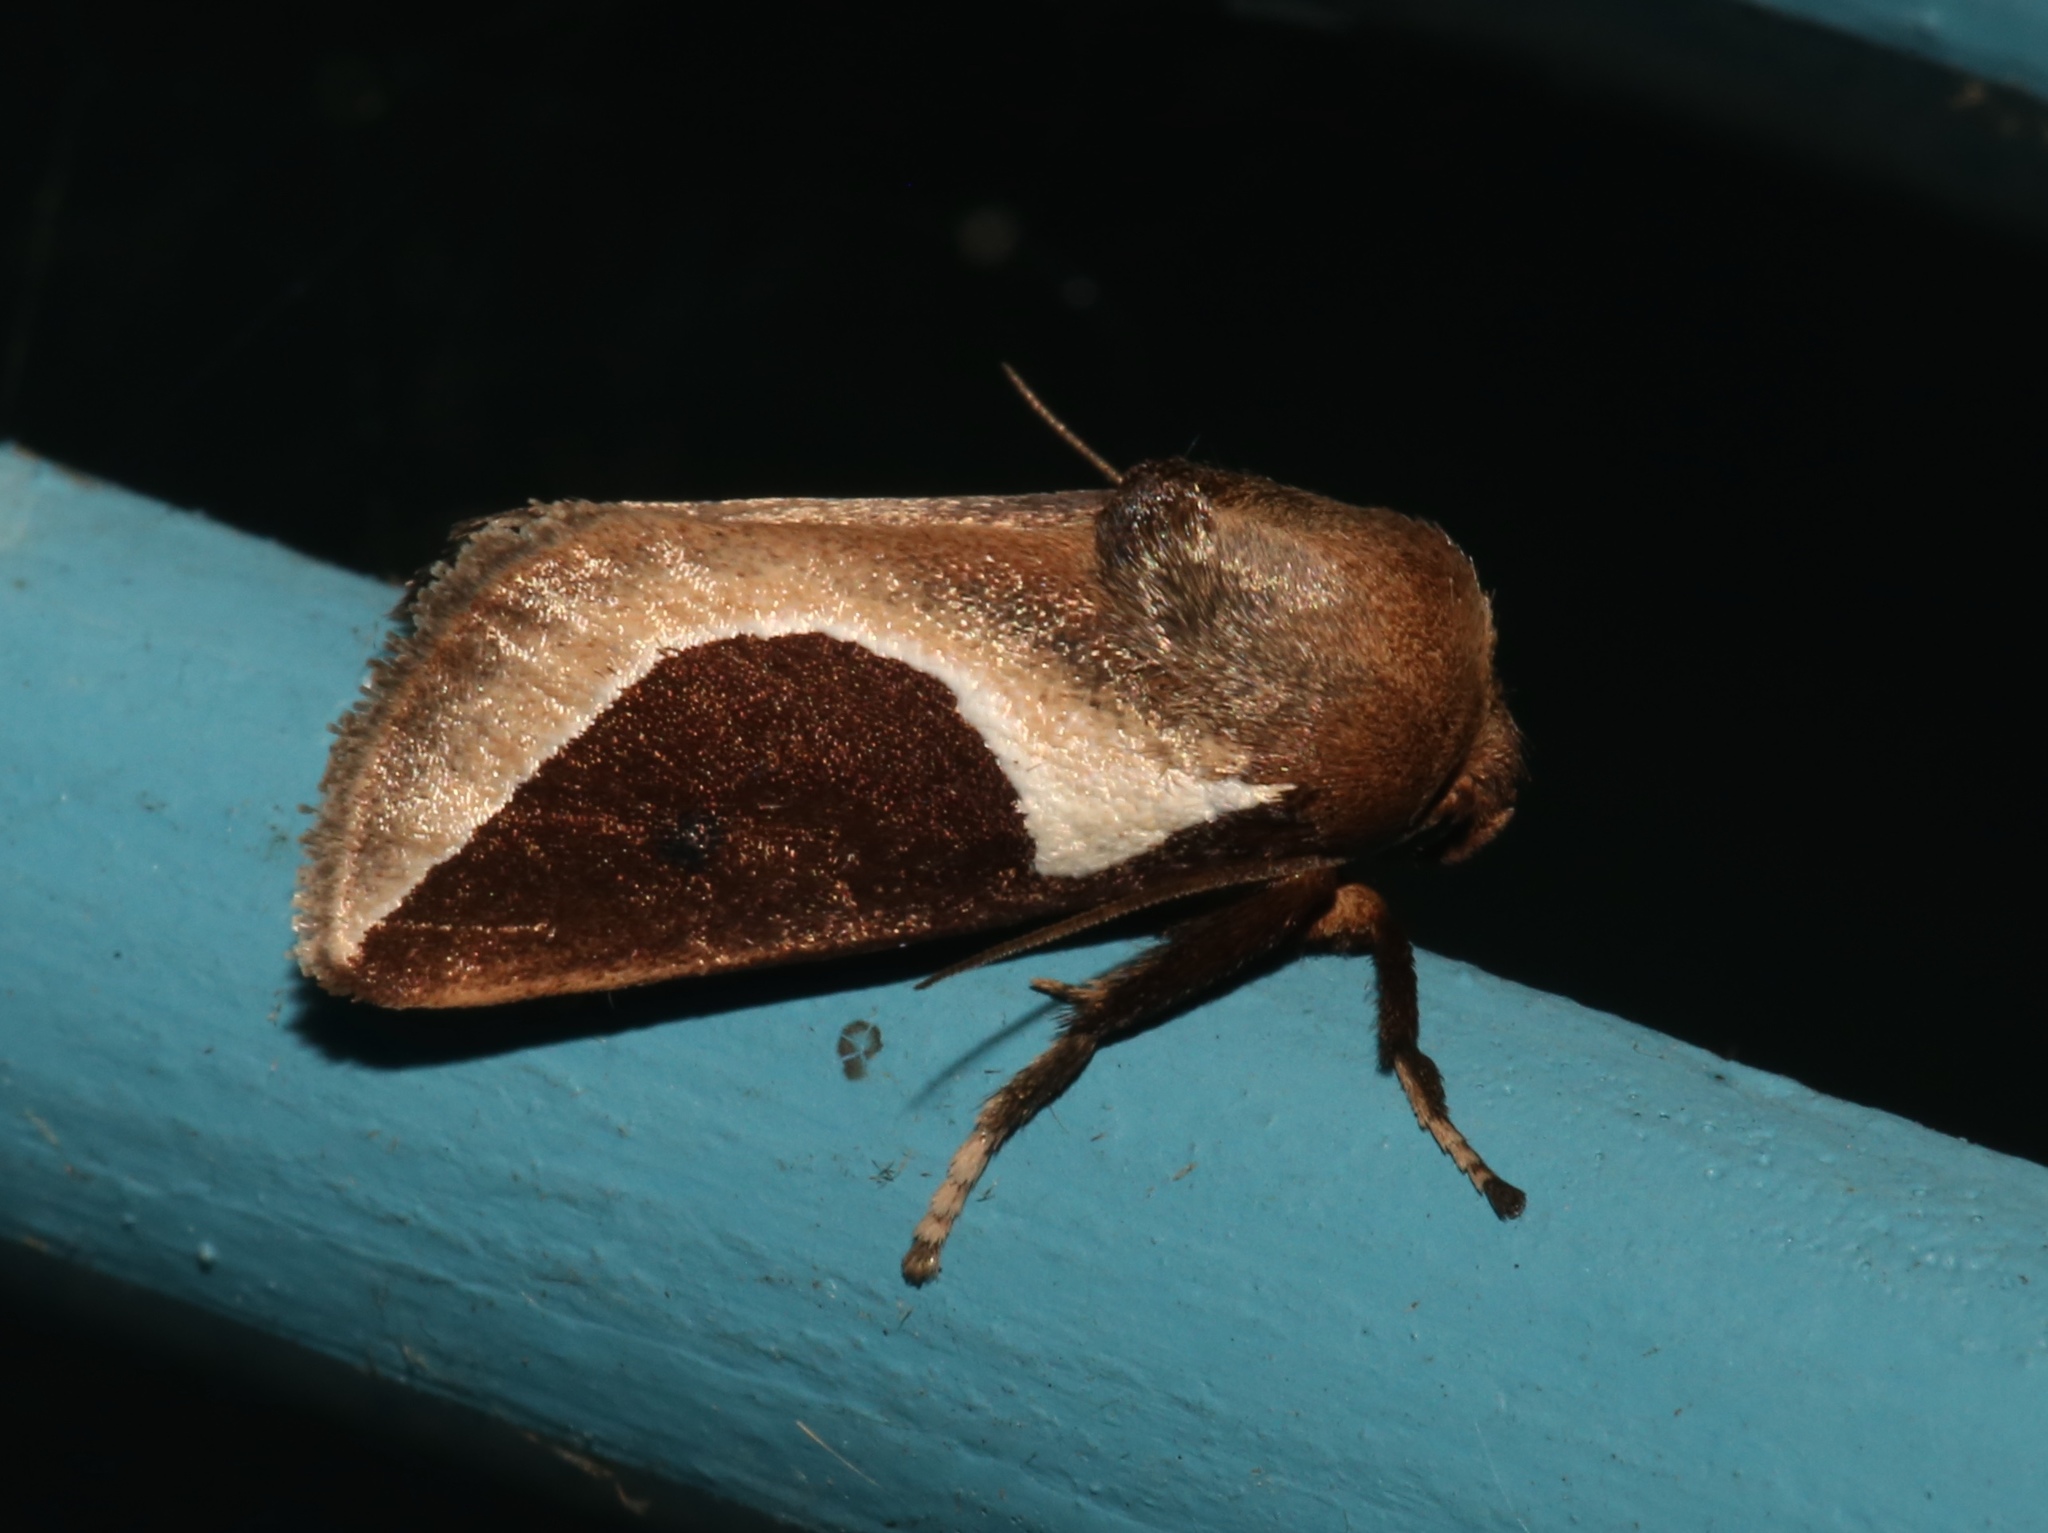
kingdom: Animalia
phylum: Arthropoda
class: Insecta
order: Lepidoptera
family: Limacodidae
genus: Prolimacodes
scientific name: Prolimacodes badia
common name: Skiff moth
